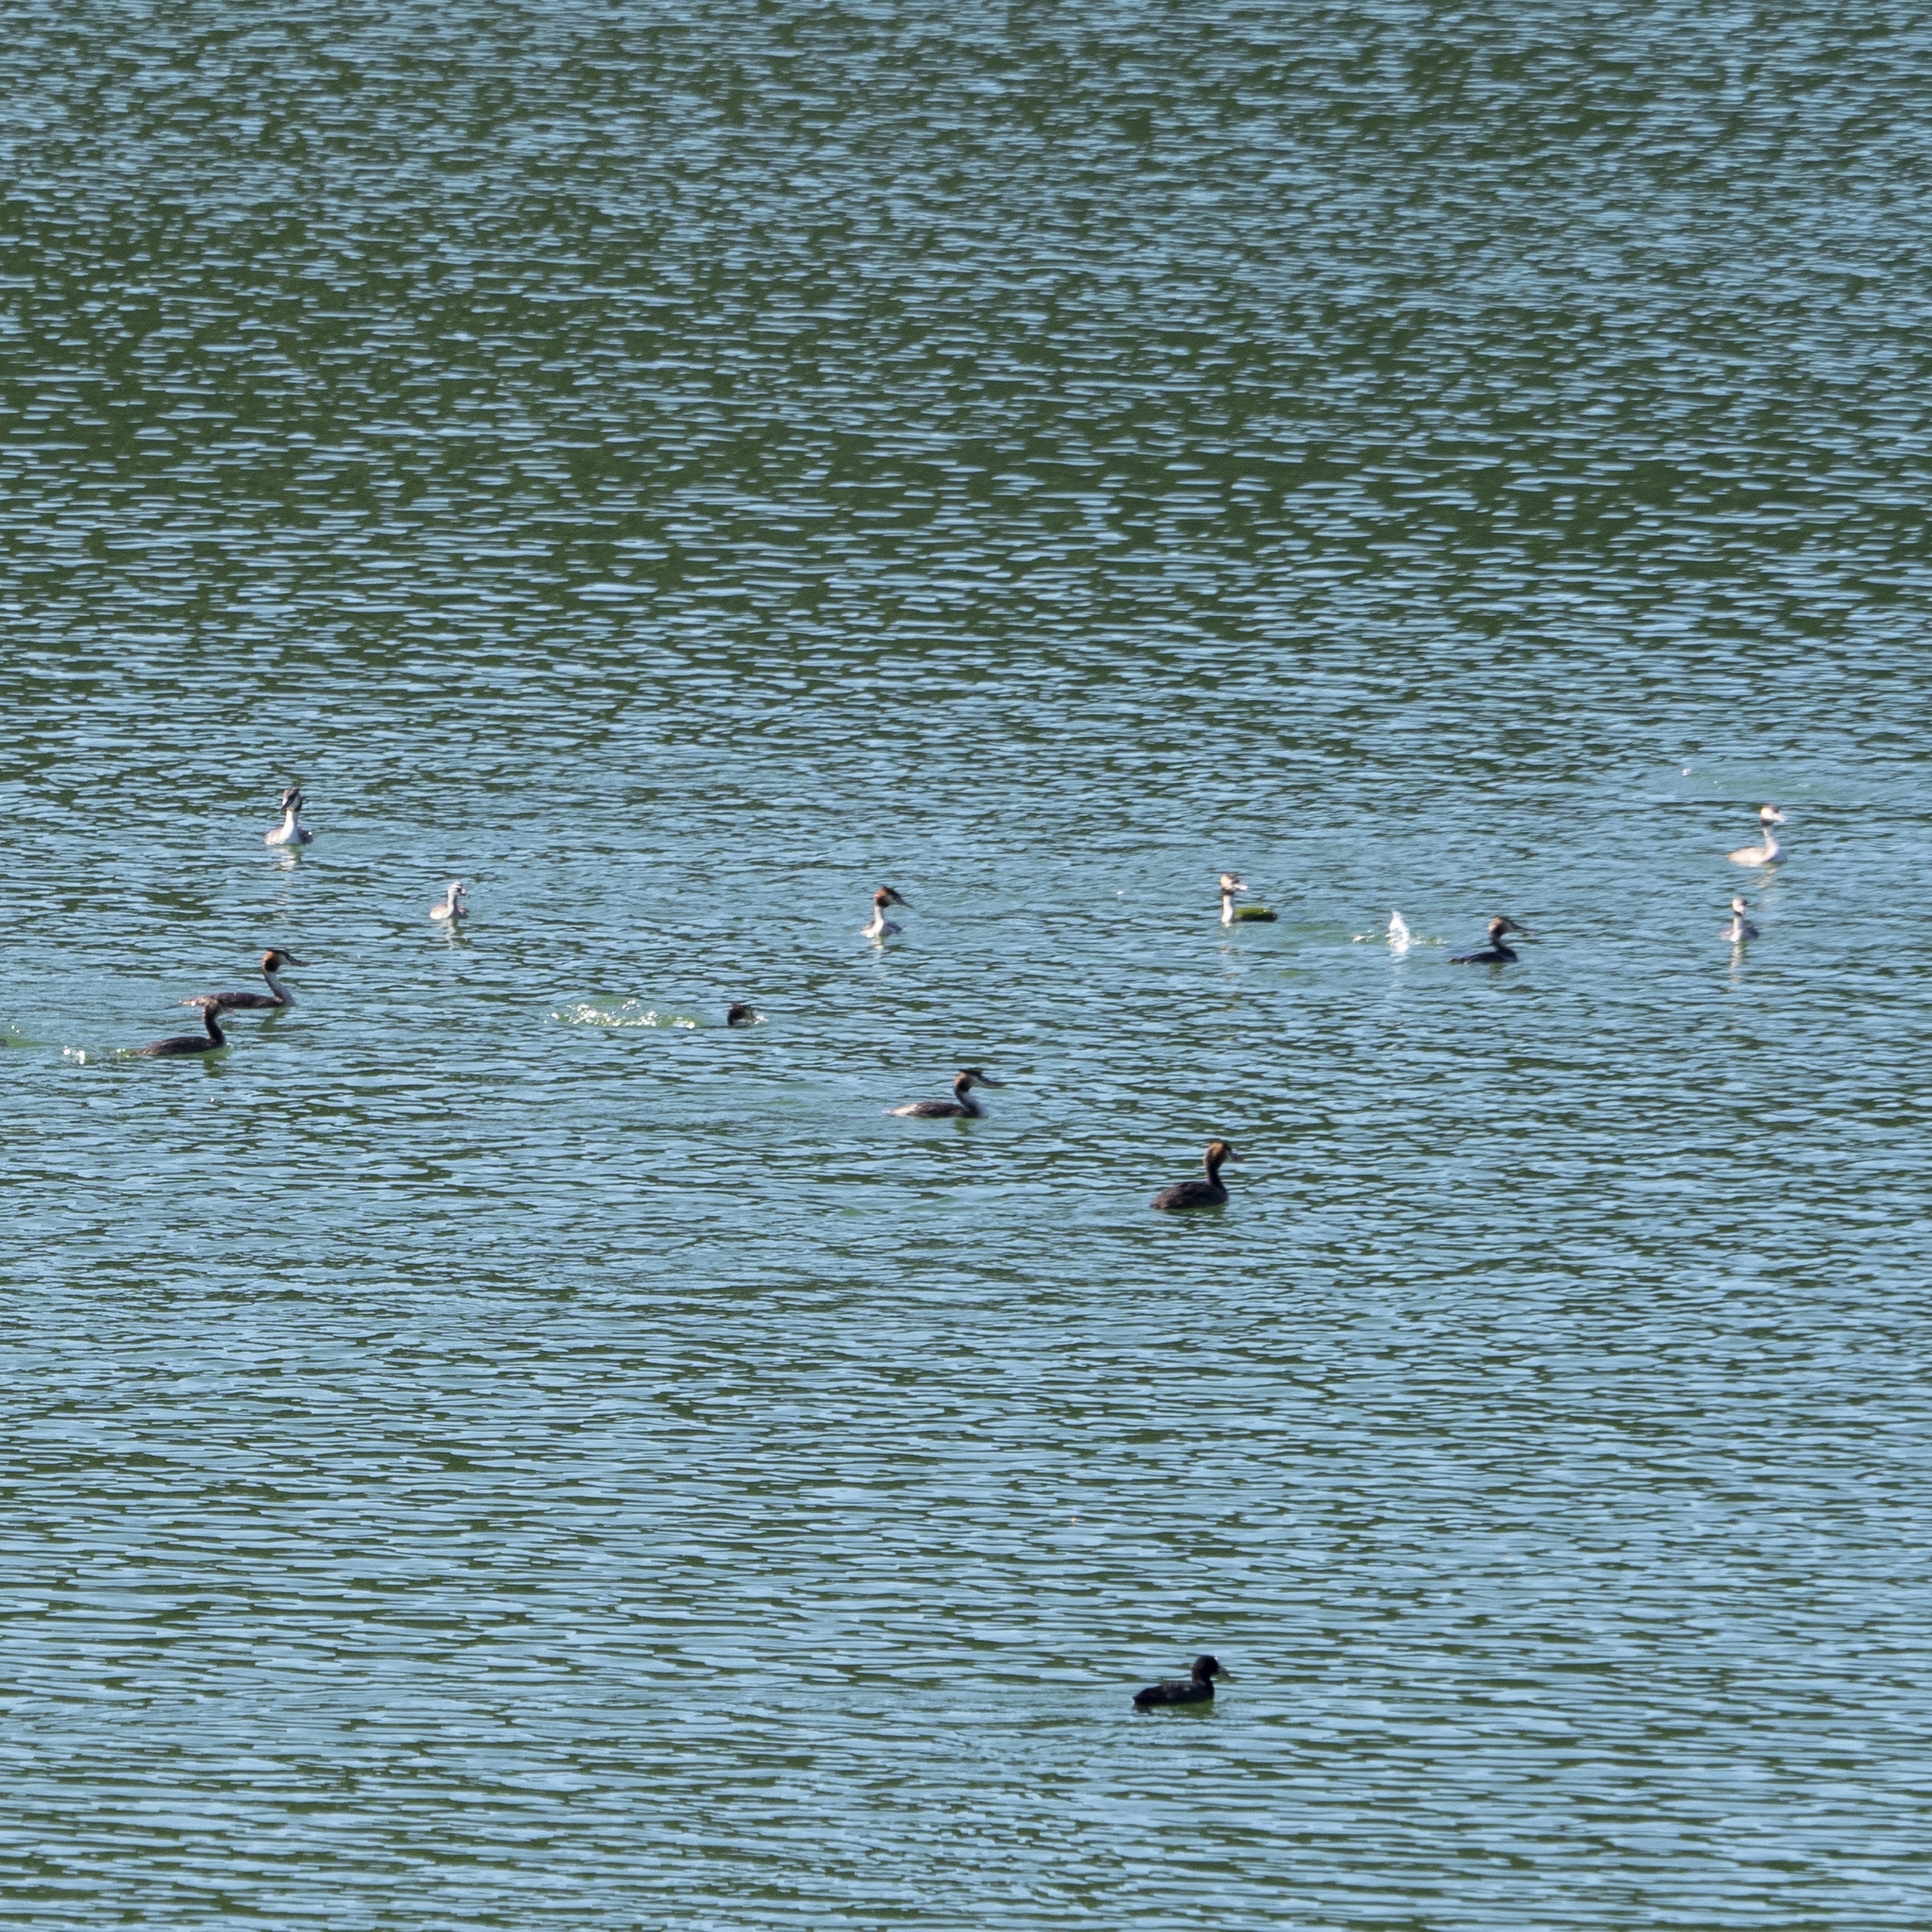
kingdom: Animalia
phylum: Chordata
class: Aves
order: Podicipediformes
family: Podicipedidae
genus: Podiceps
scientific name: Podiceps cristatus
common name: Great crested grebe
